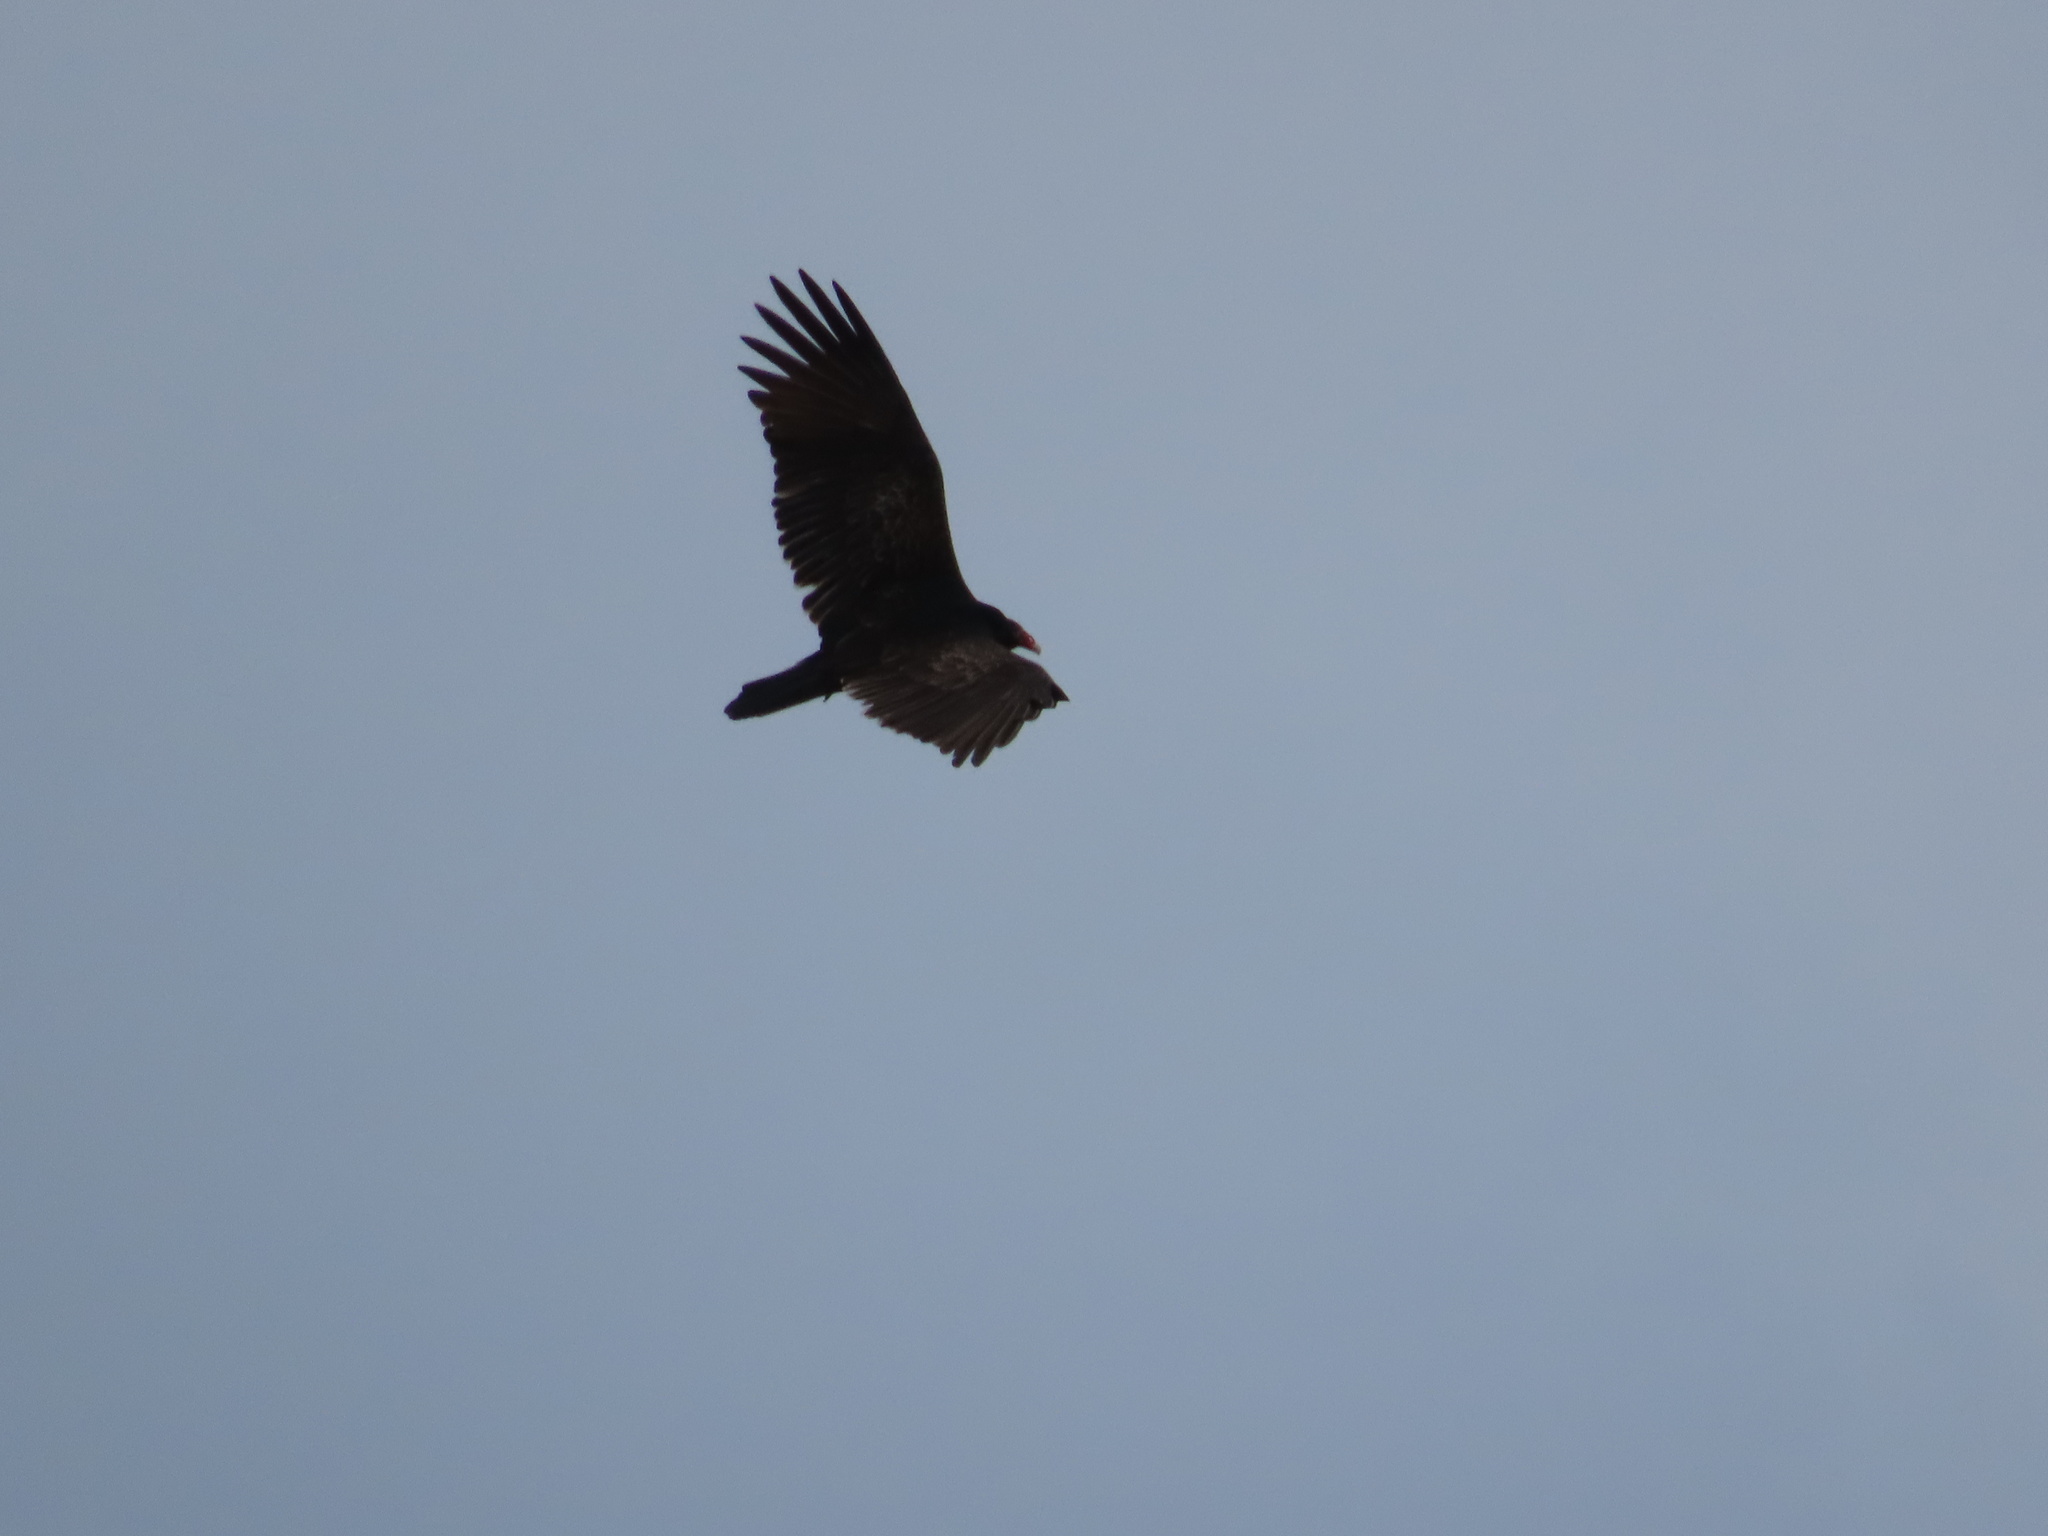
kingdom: Animalia
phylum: Chordata
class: Aves
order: Accipitriformes
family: Cathartidae
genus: Cathartes
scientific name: Cathartes aura
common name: Turkey vulture
